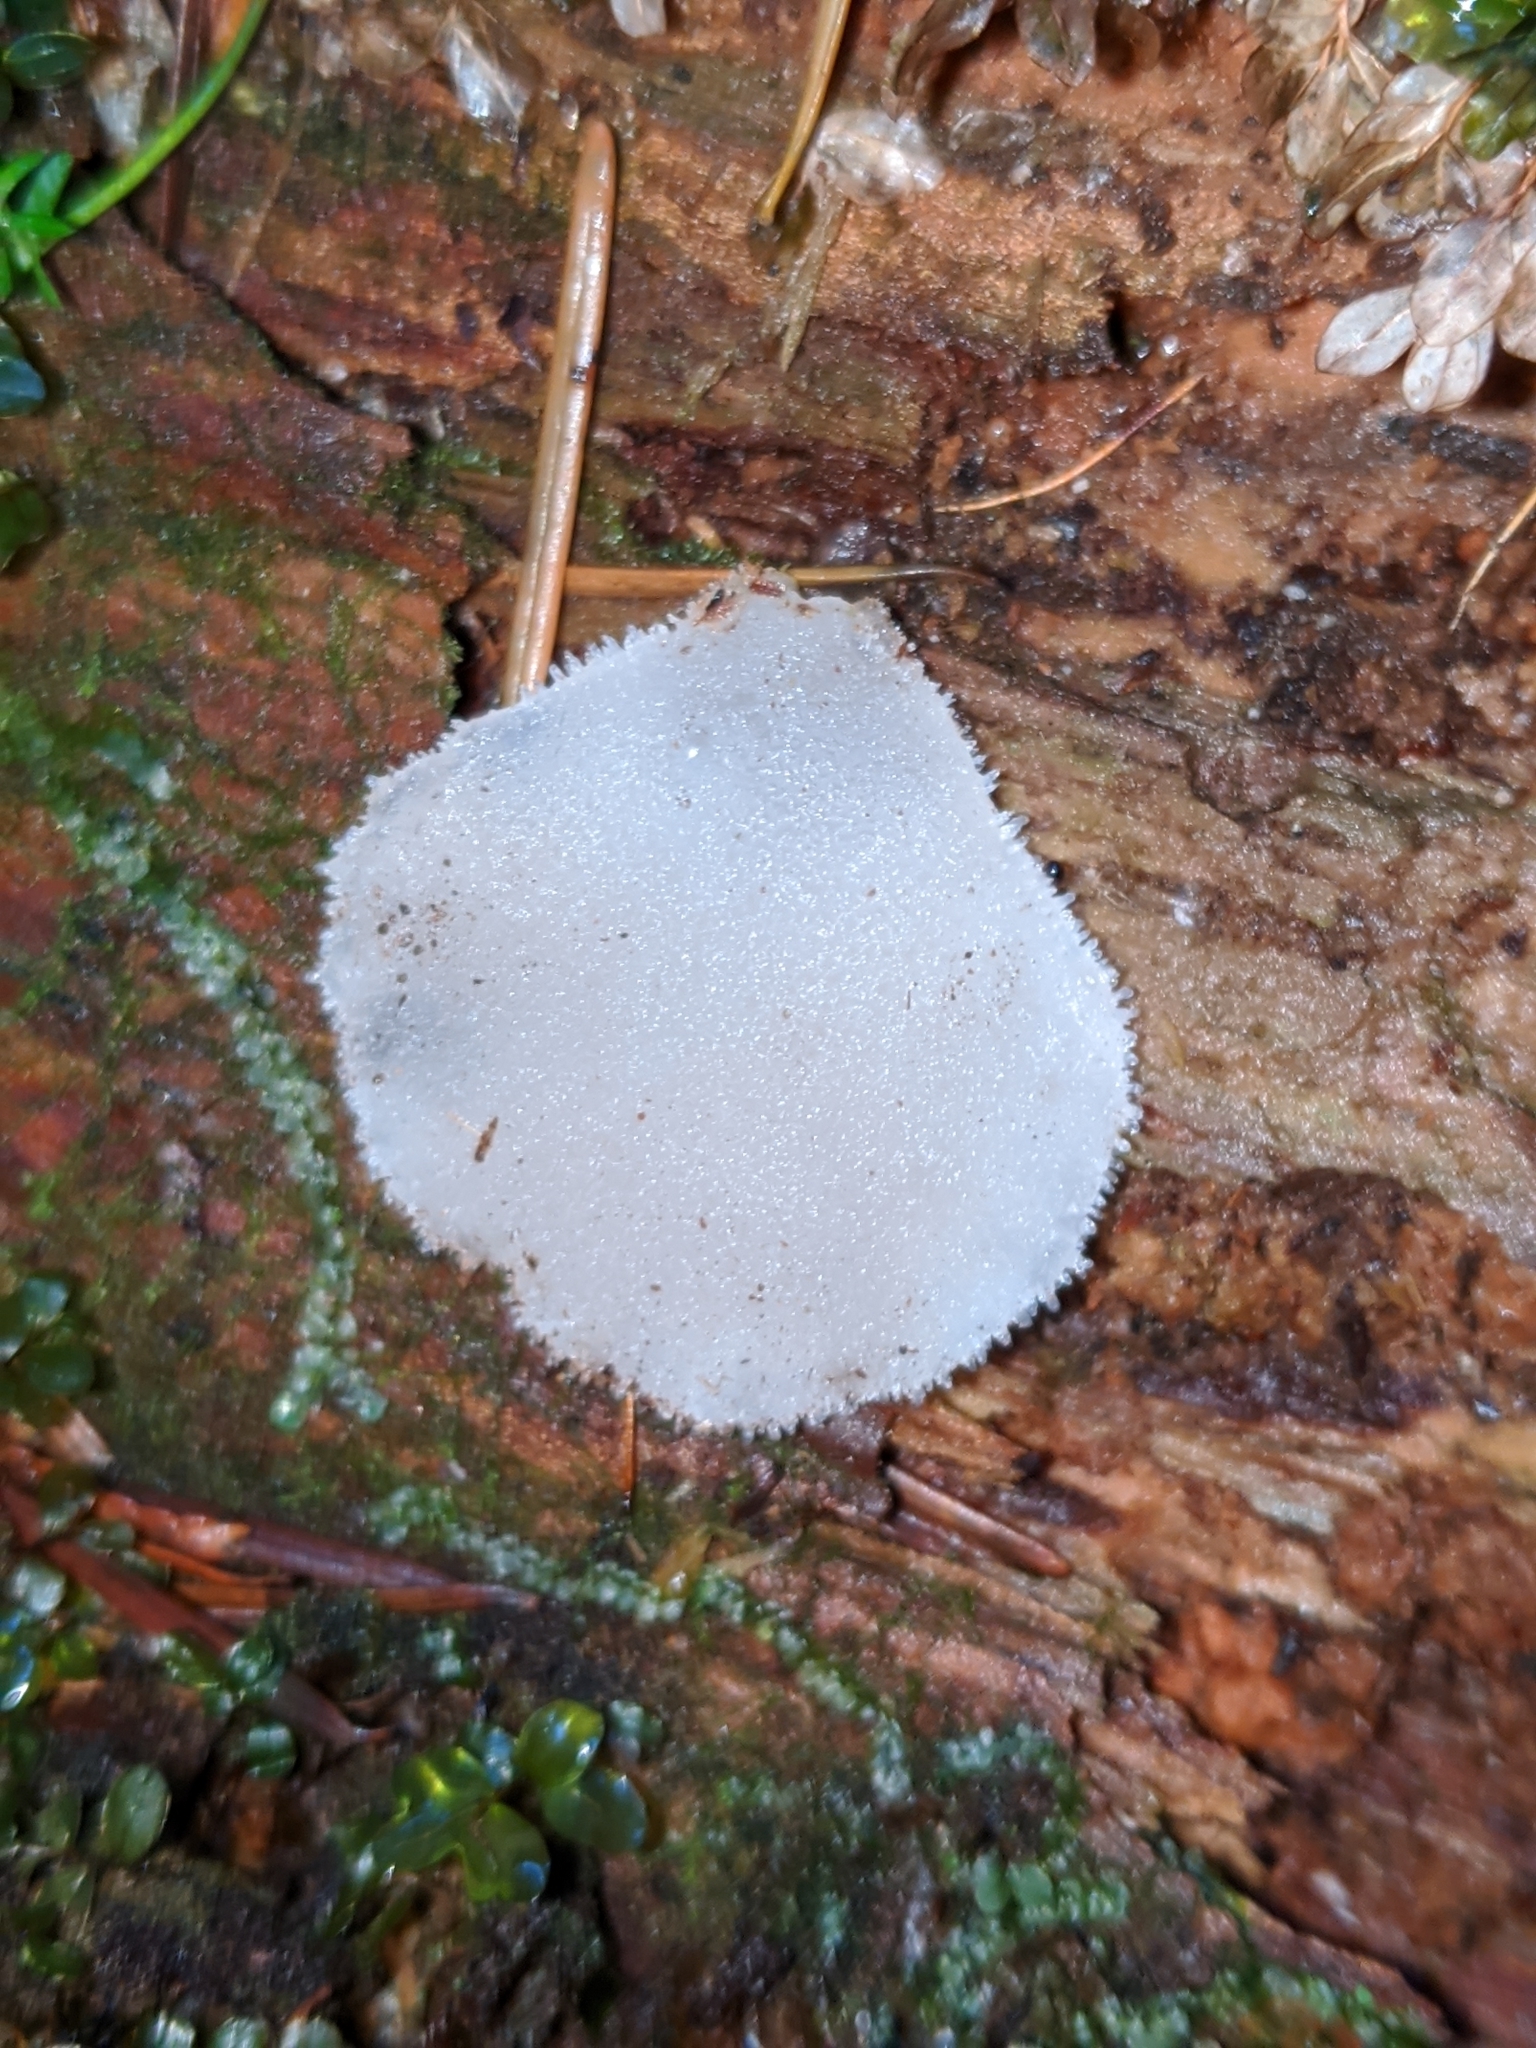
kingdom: Fungi
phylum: Basidiomycota
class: Agaricomycetes
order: Auriculariales
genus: Pseudohydnum
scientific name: Pseudohydnum gelatinosum
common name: Jelly tongue
